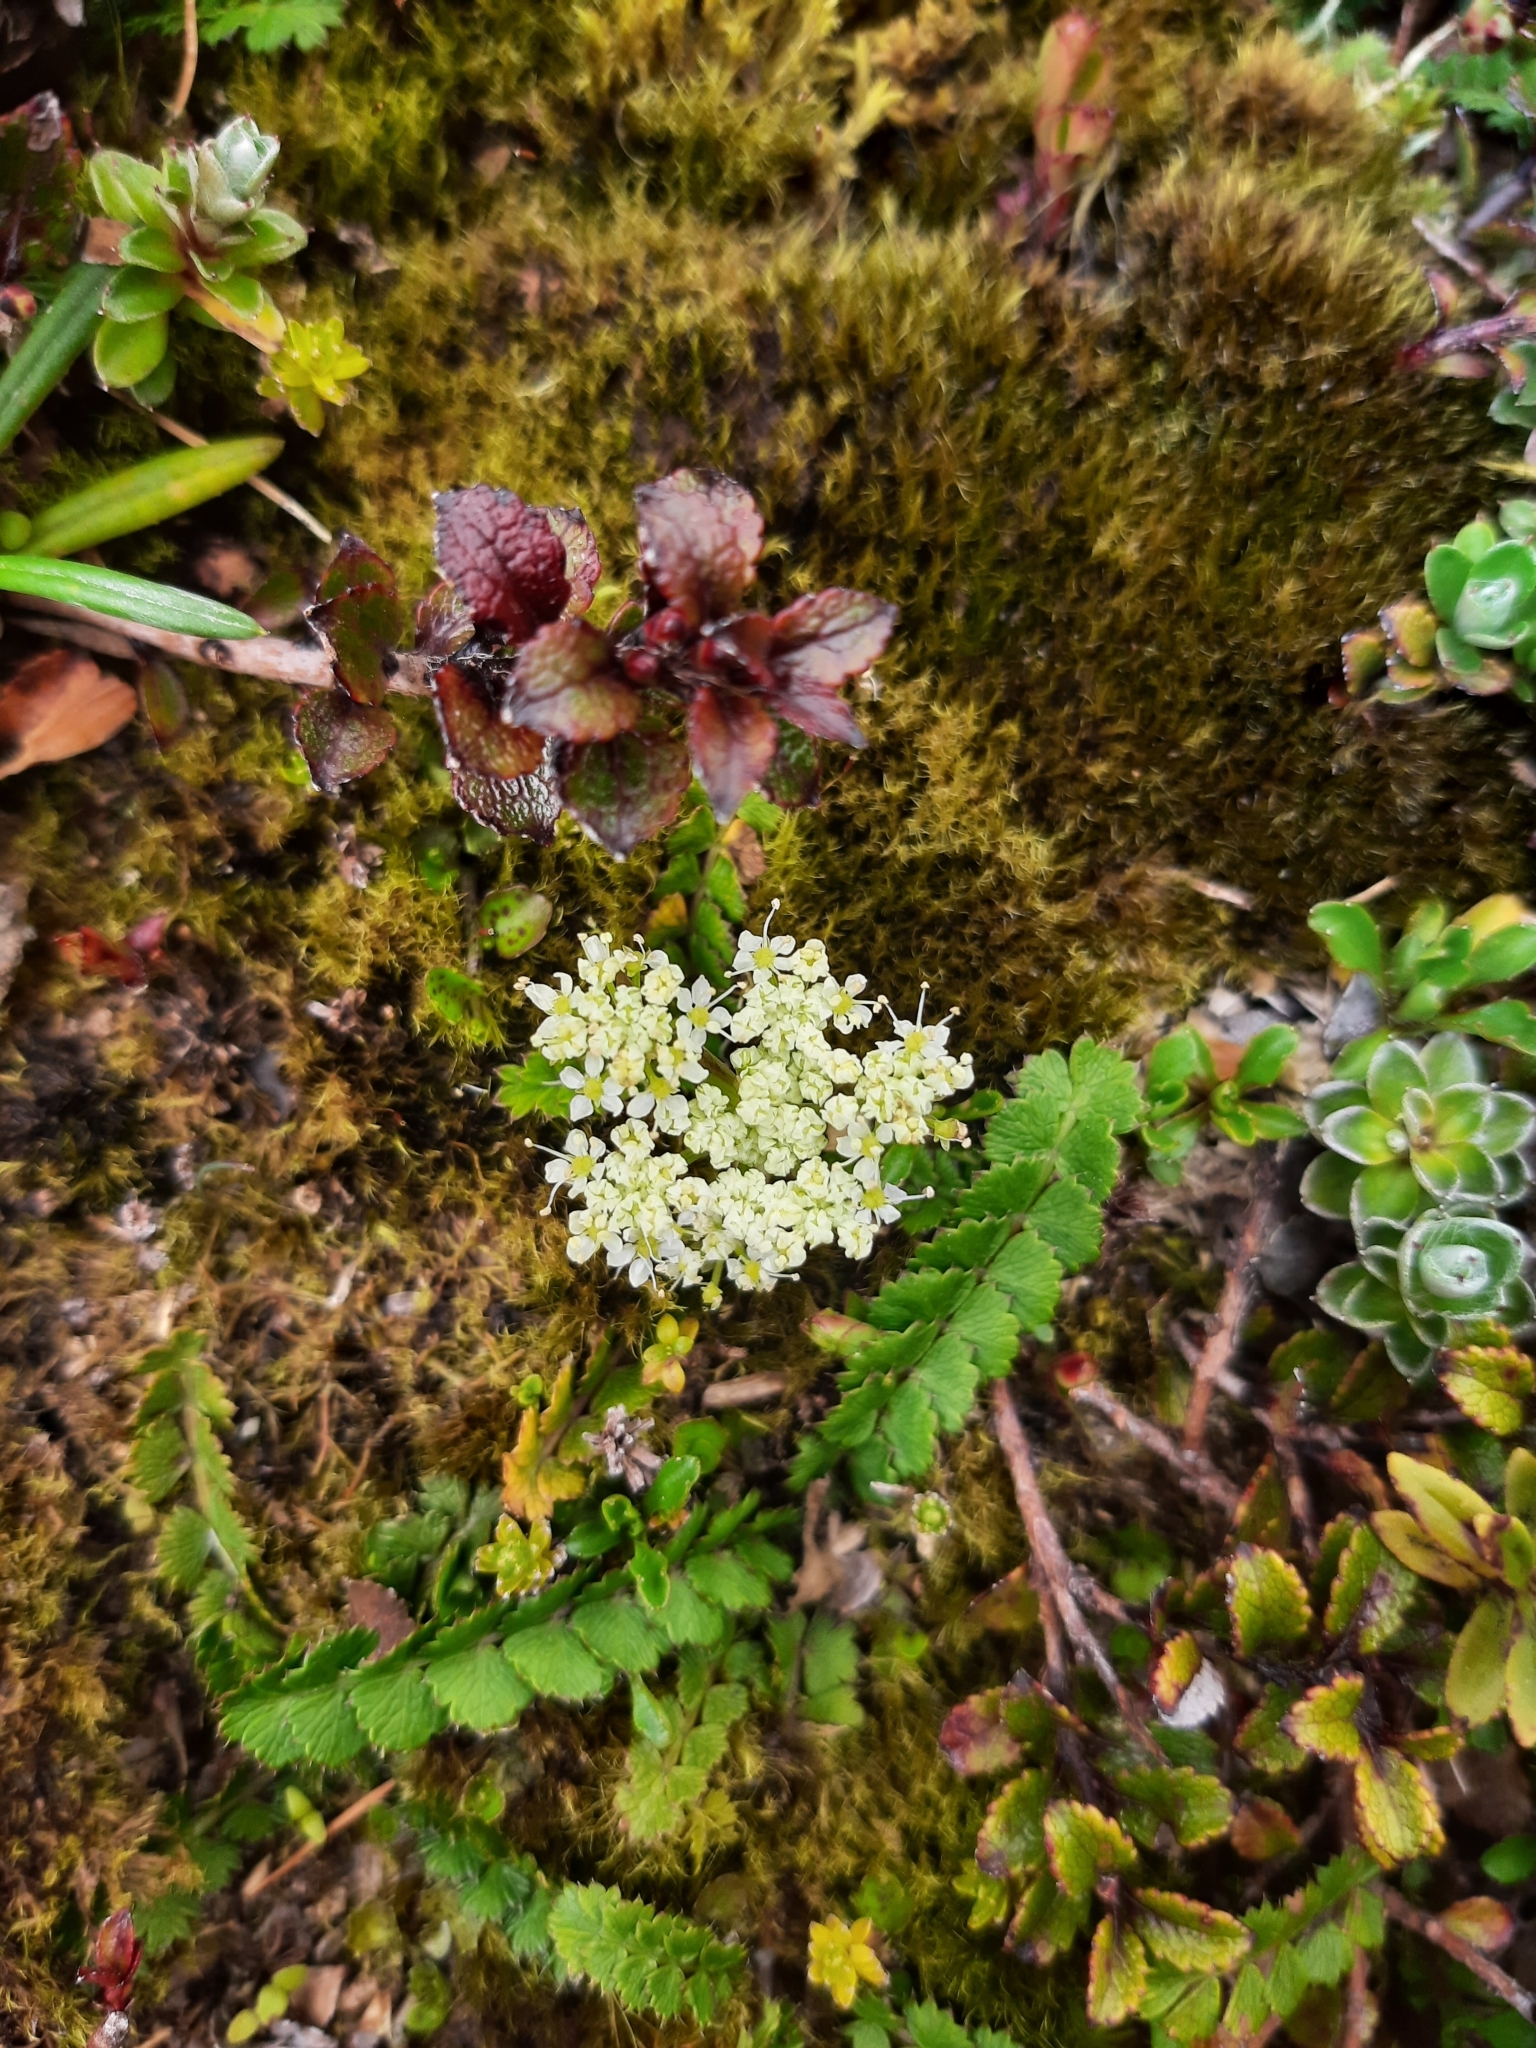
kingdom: Plantae
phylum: Tracheophyta
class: Magnoliopsida
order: Apiales
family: Apiaceae
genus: Anisotome
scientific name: Anisotome aromatica
